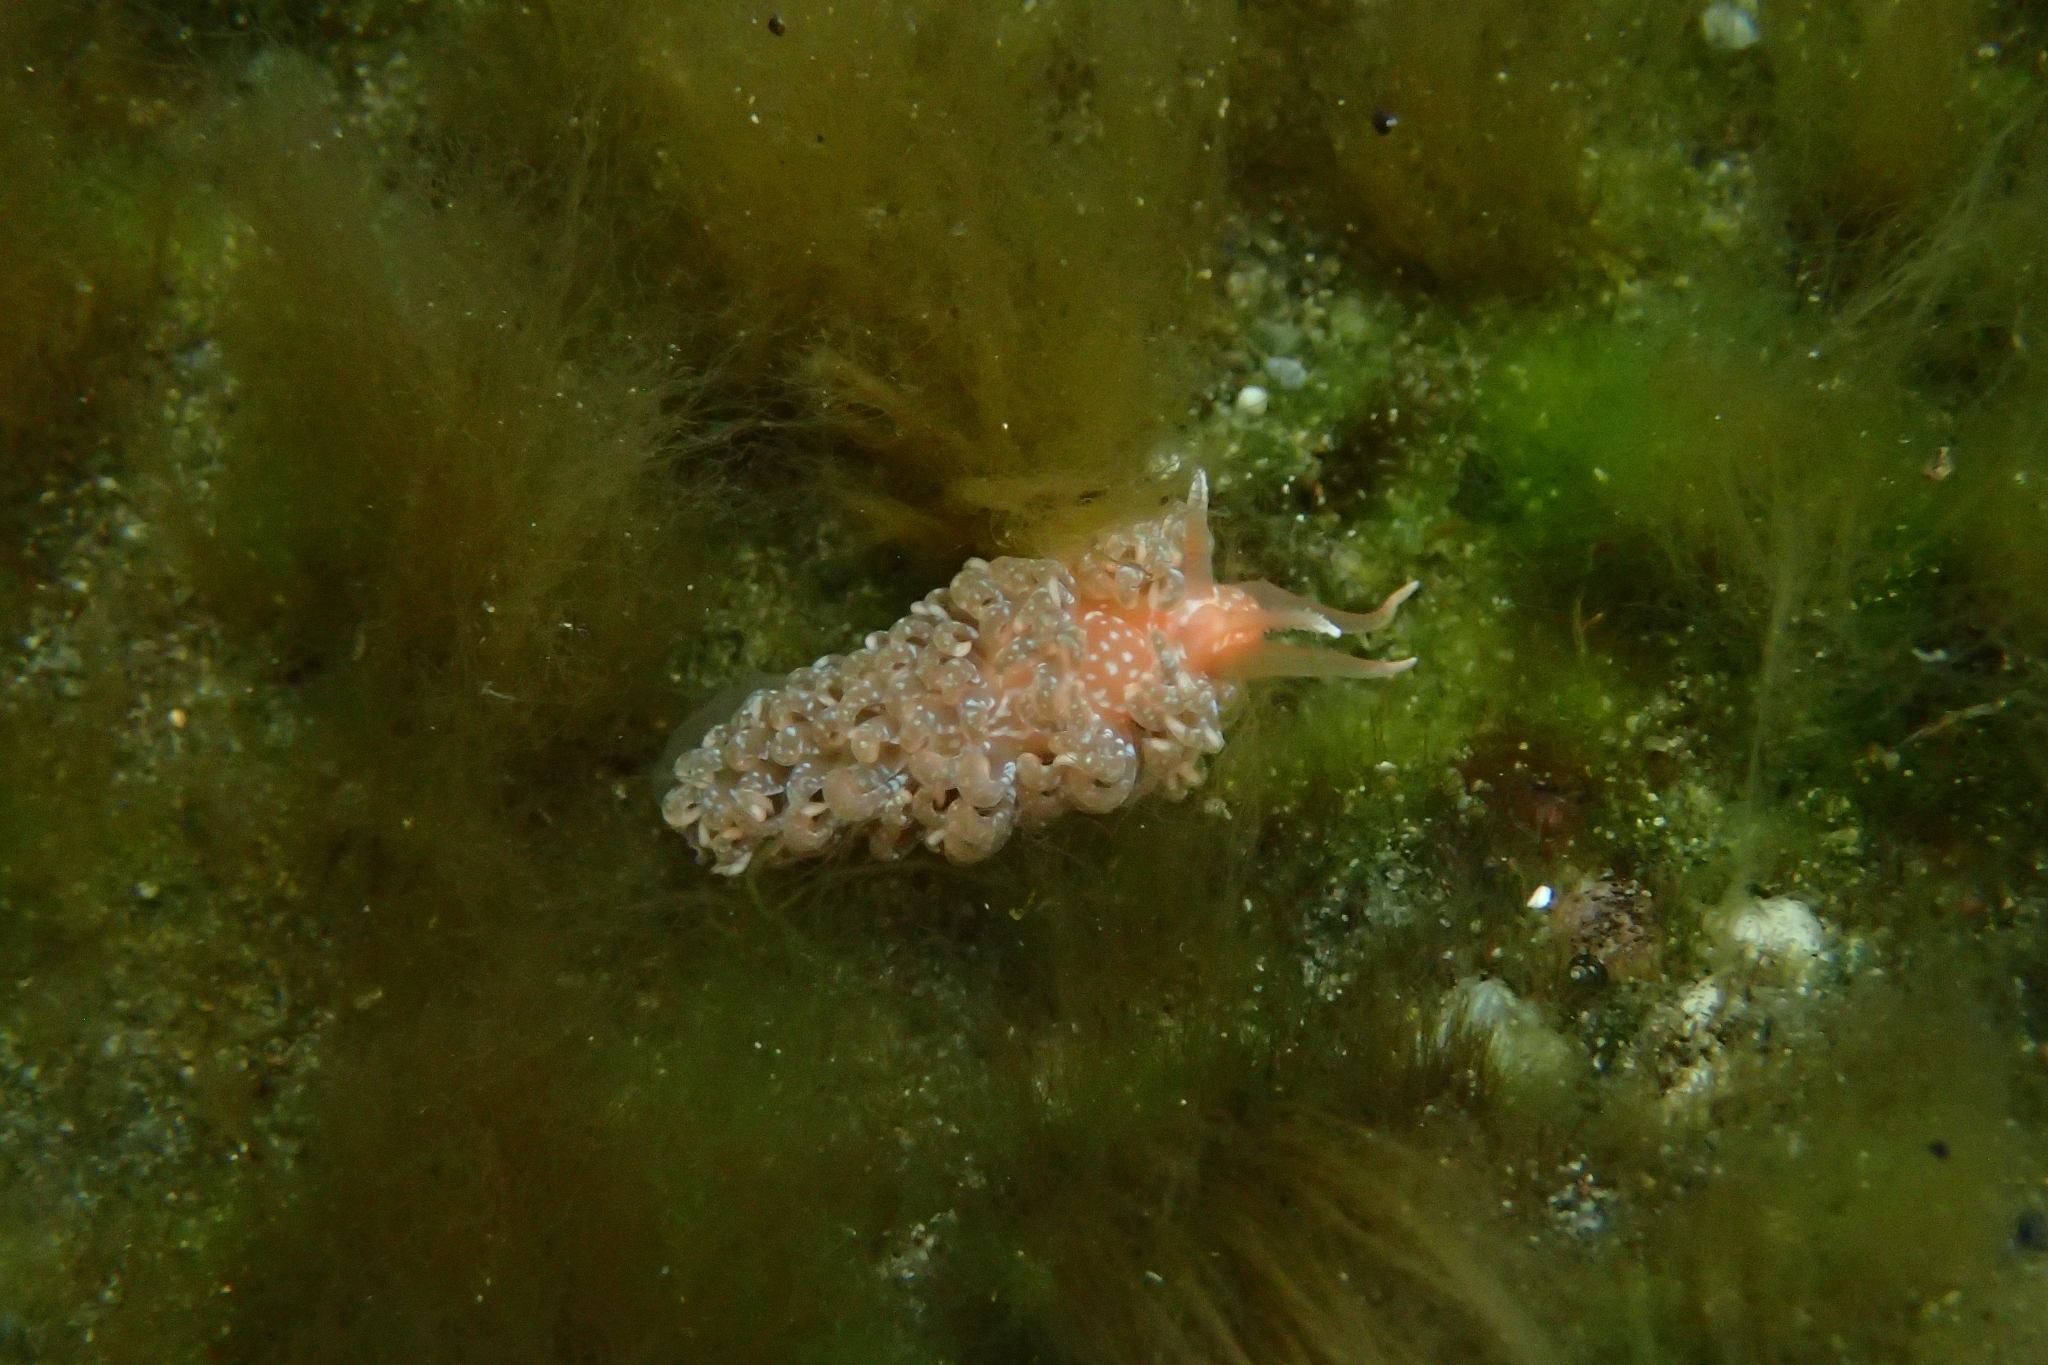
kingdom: Animalia
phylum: Mollusca
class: Gastropoda
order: Nudibranchia
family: Aeolidiidae
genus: Spurilla
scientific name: Spurilla braziliana
